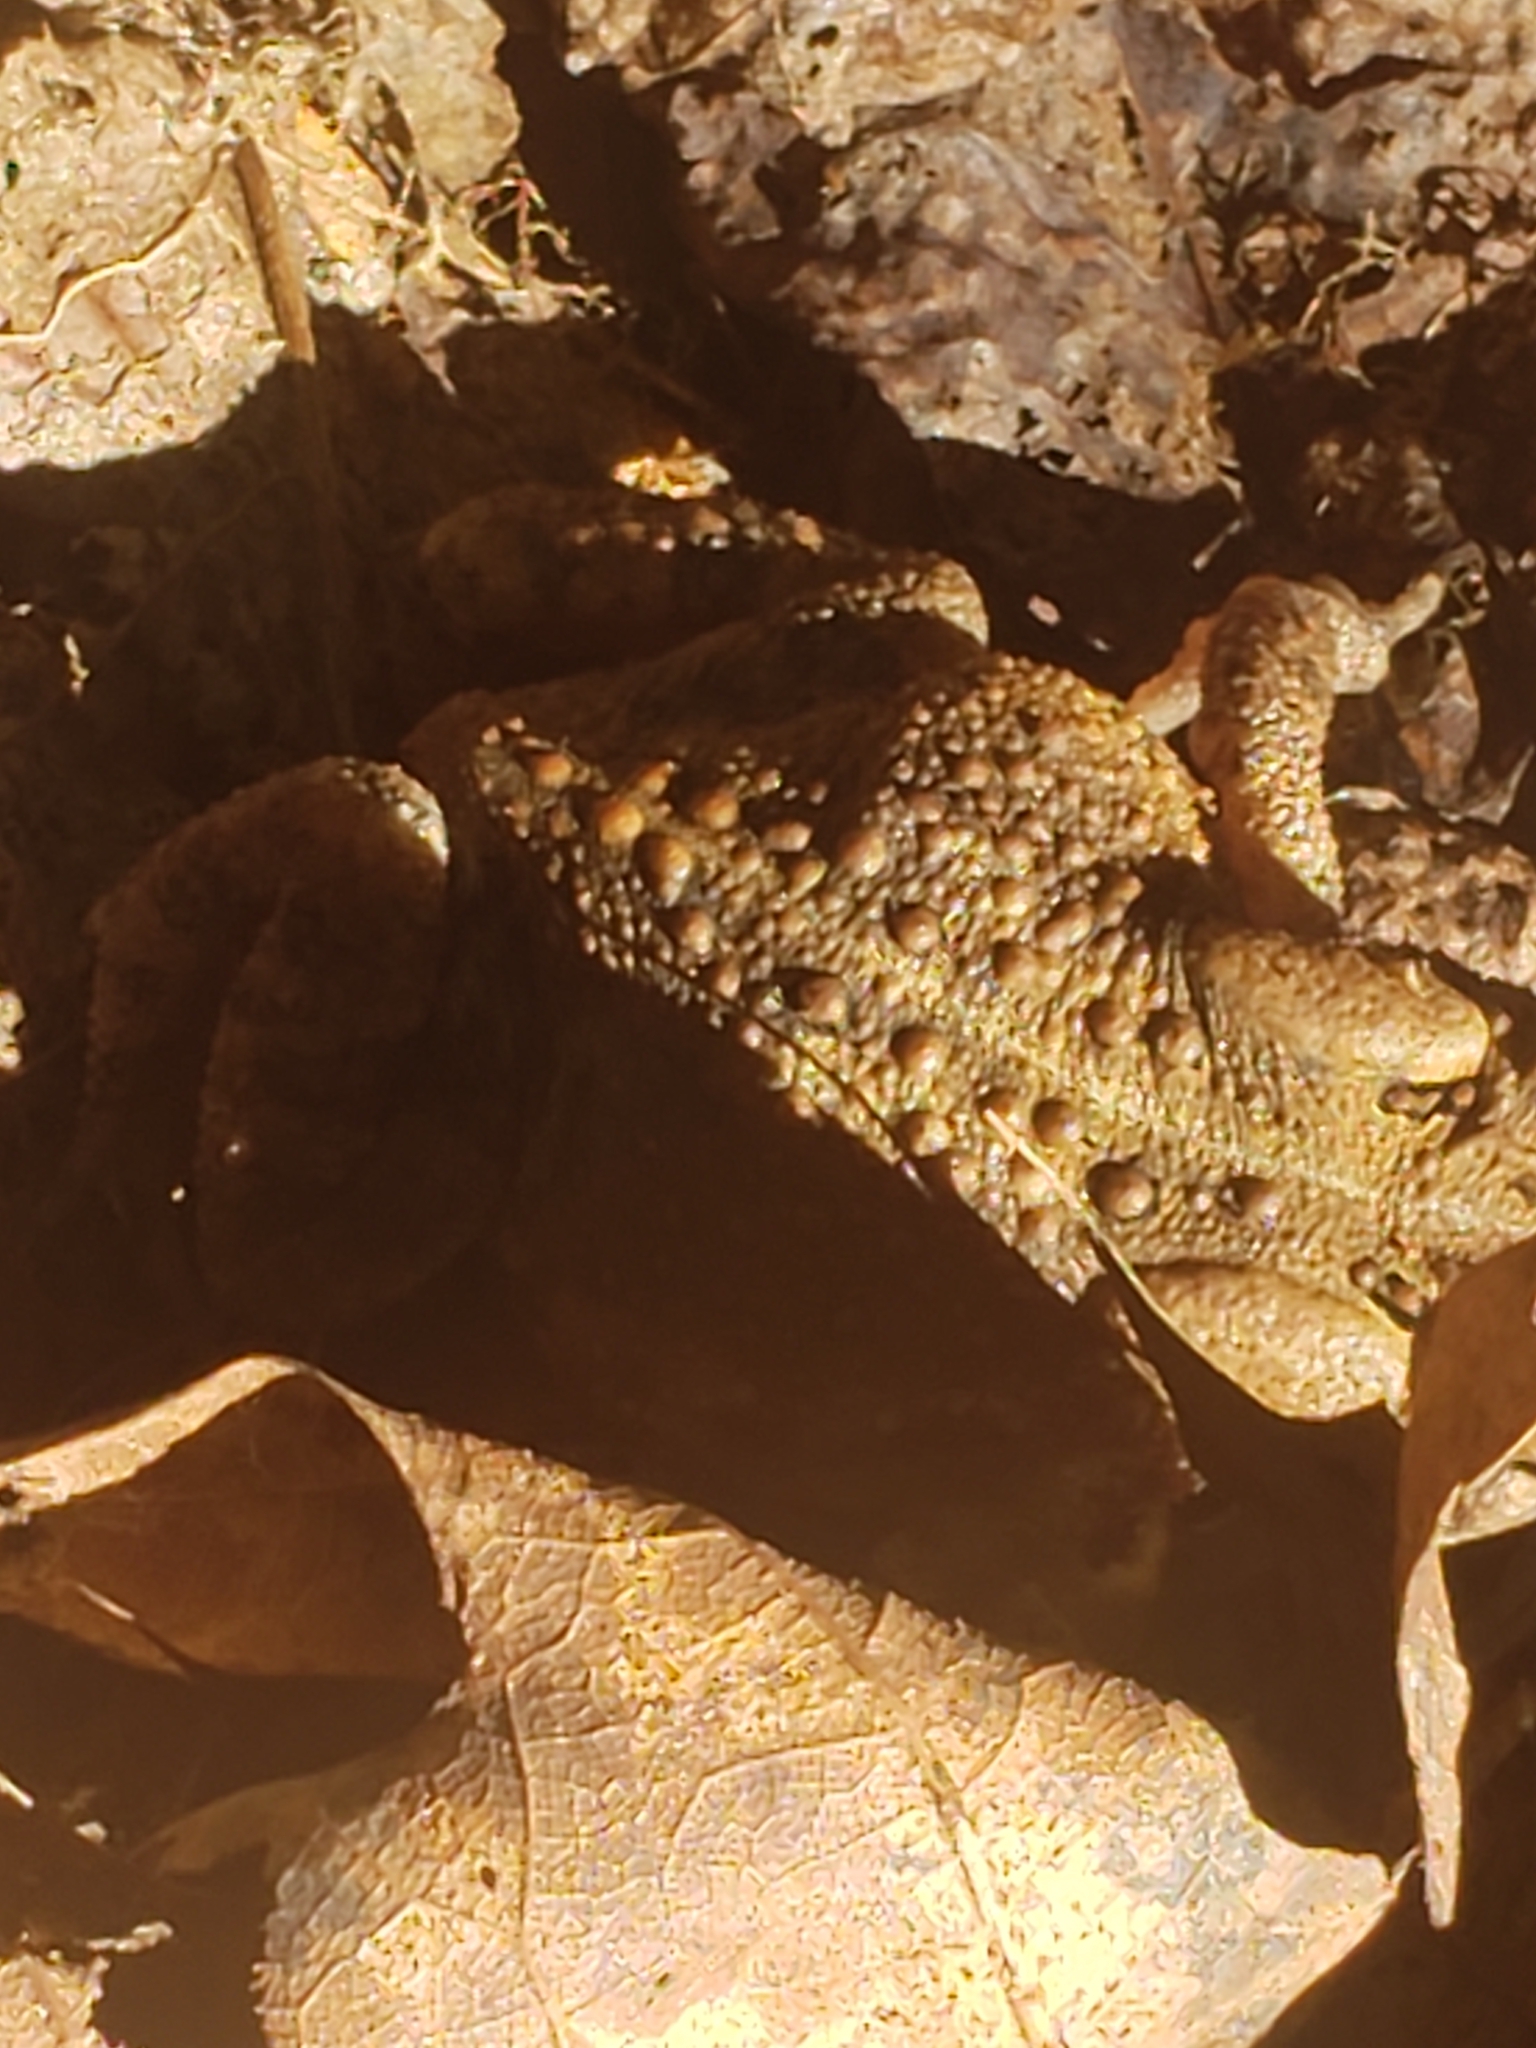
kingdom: Animalia
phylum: Chordata
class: Amphibia
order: Anura
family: Bufonidae
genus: Anaxyrus
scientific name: Anaxyrus americanus
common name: American toad
